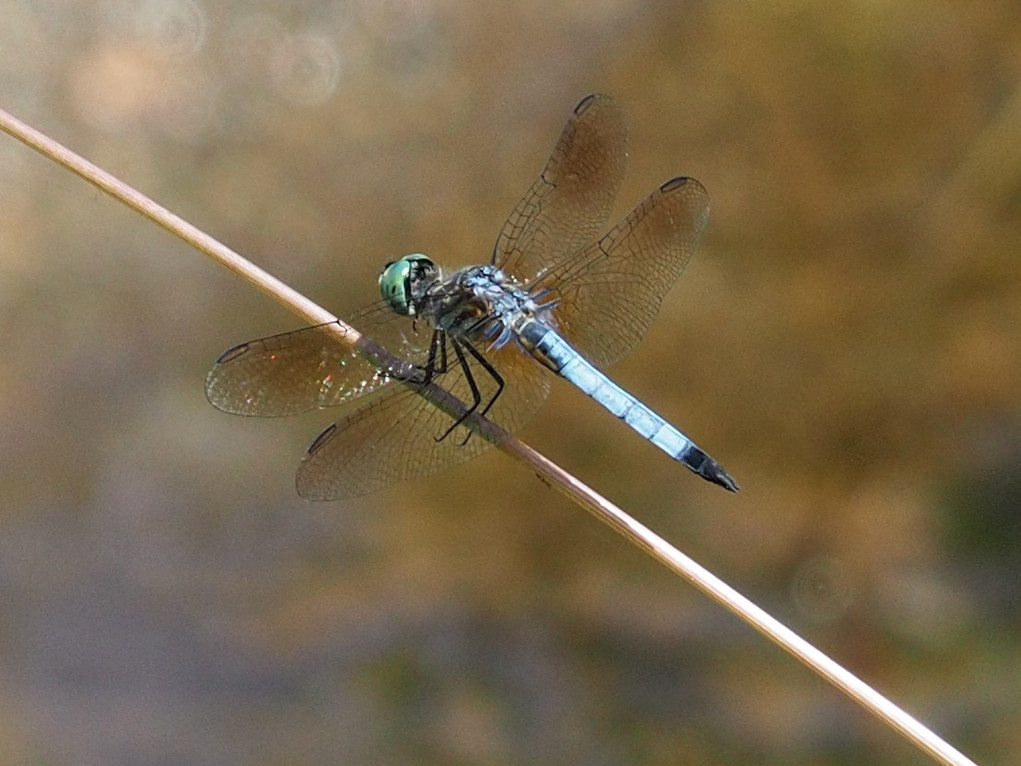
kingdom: Animalia
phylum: Arthropoda
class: Insecta
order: Odonata
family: Libellulidae
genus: Pachydiplax
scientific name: Pachydiplax longipennis
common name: Blue dasher
